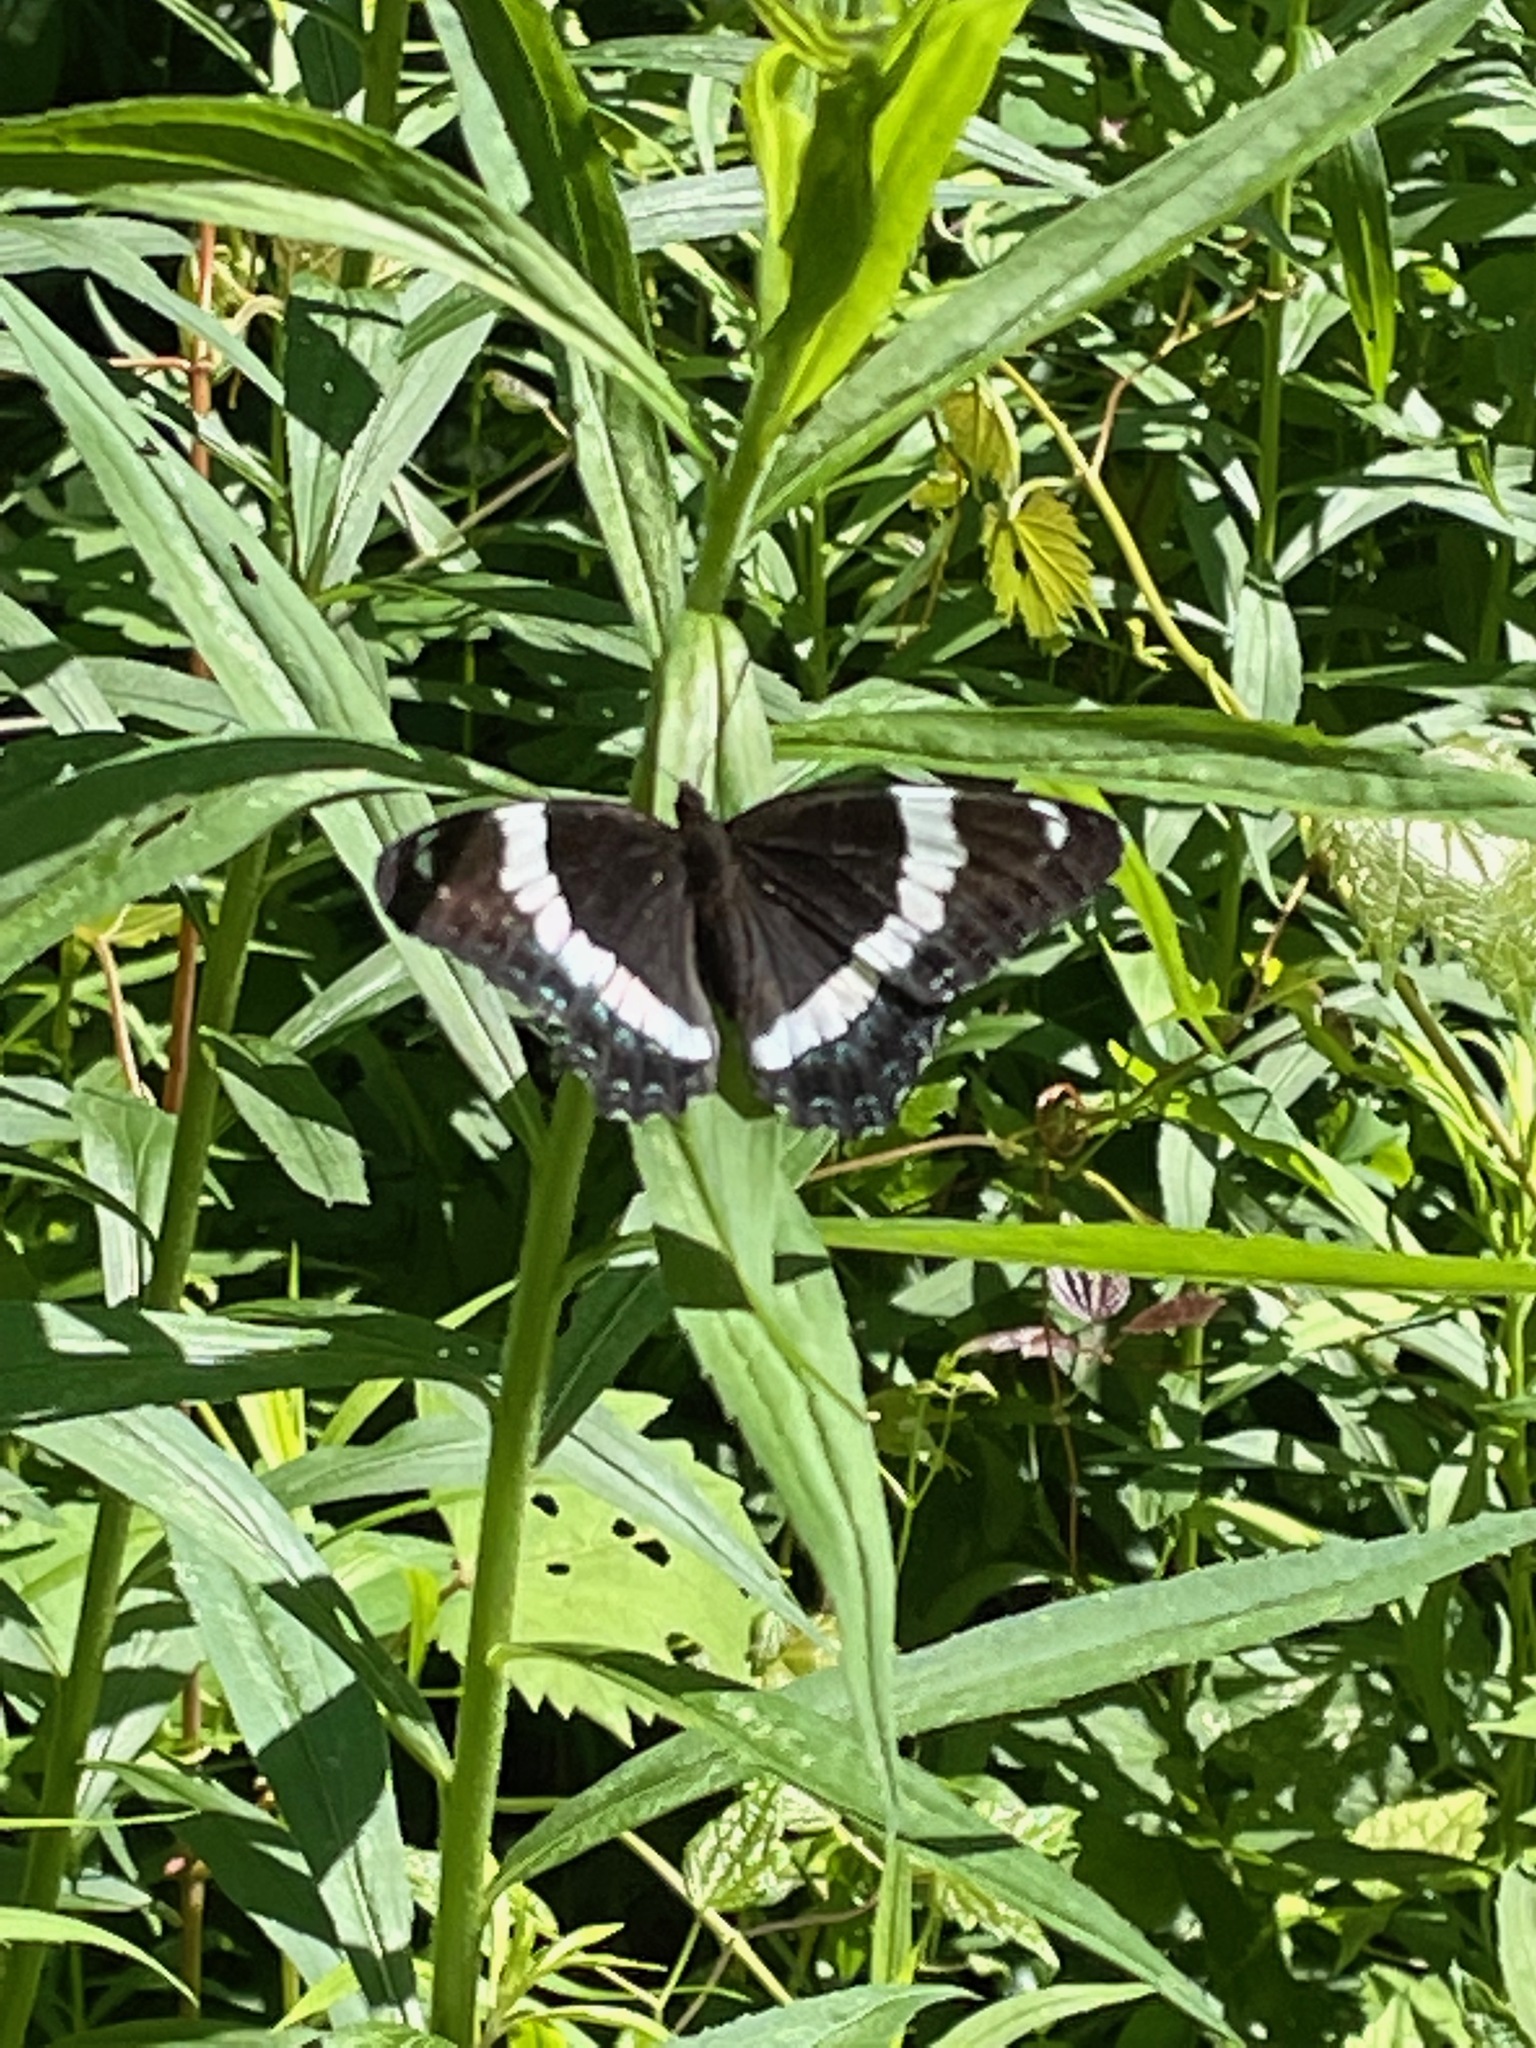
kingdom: Animalia
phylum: Arthropoda
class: Insecta
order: Lepidoptera
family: Nymphalidae
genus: Limenitis
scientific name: Limenitis arthemis
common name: Red-spotted admiral
